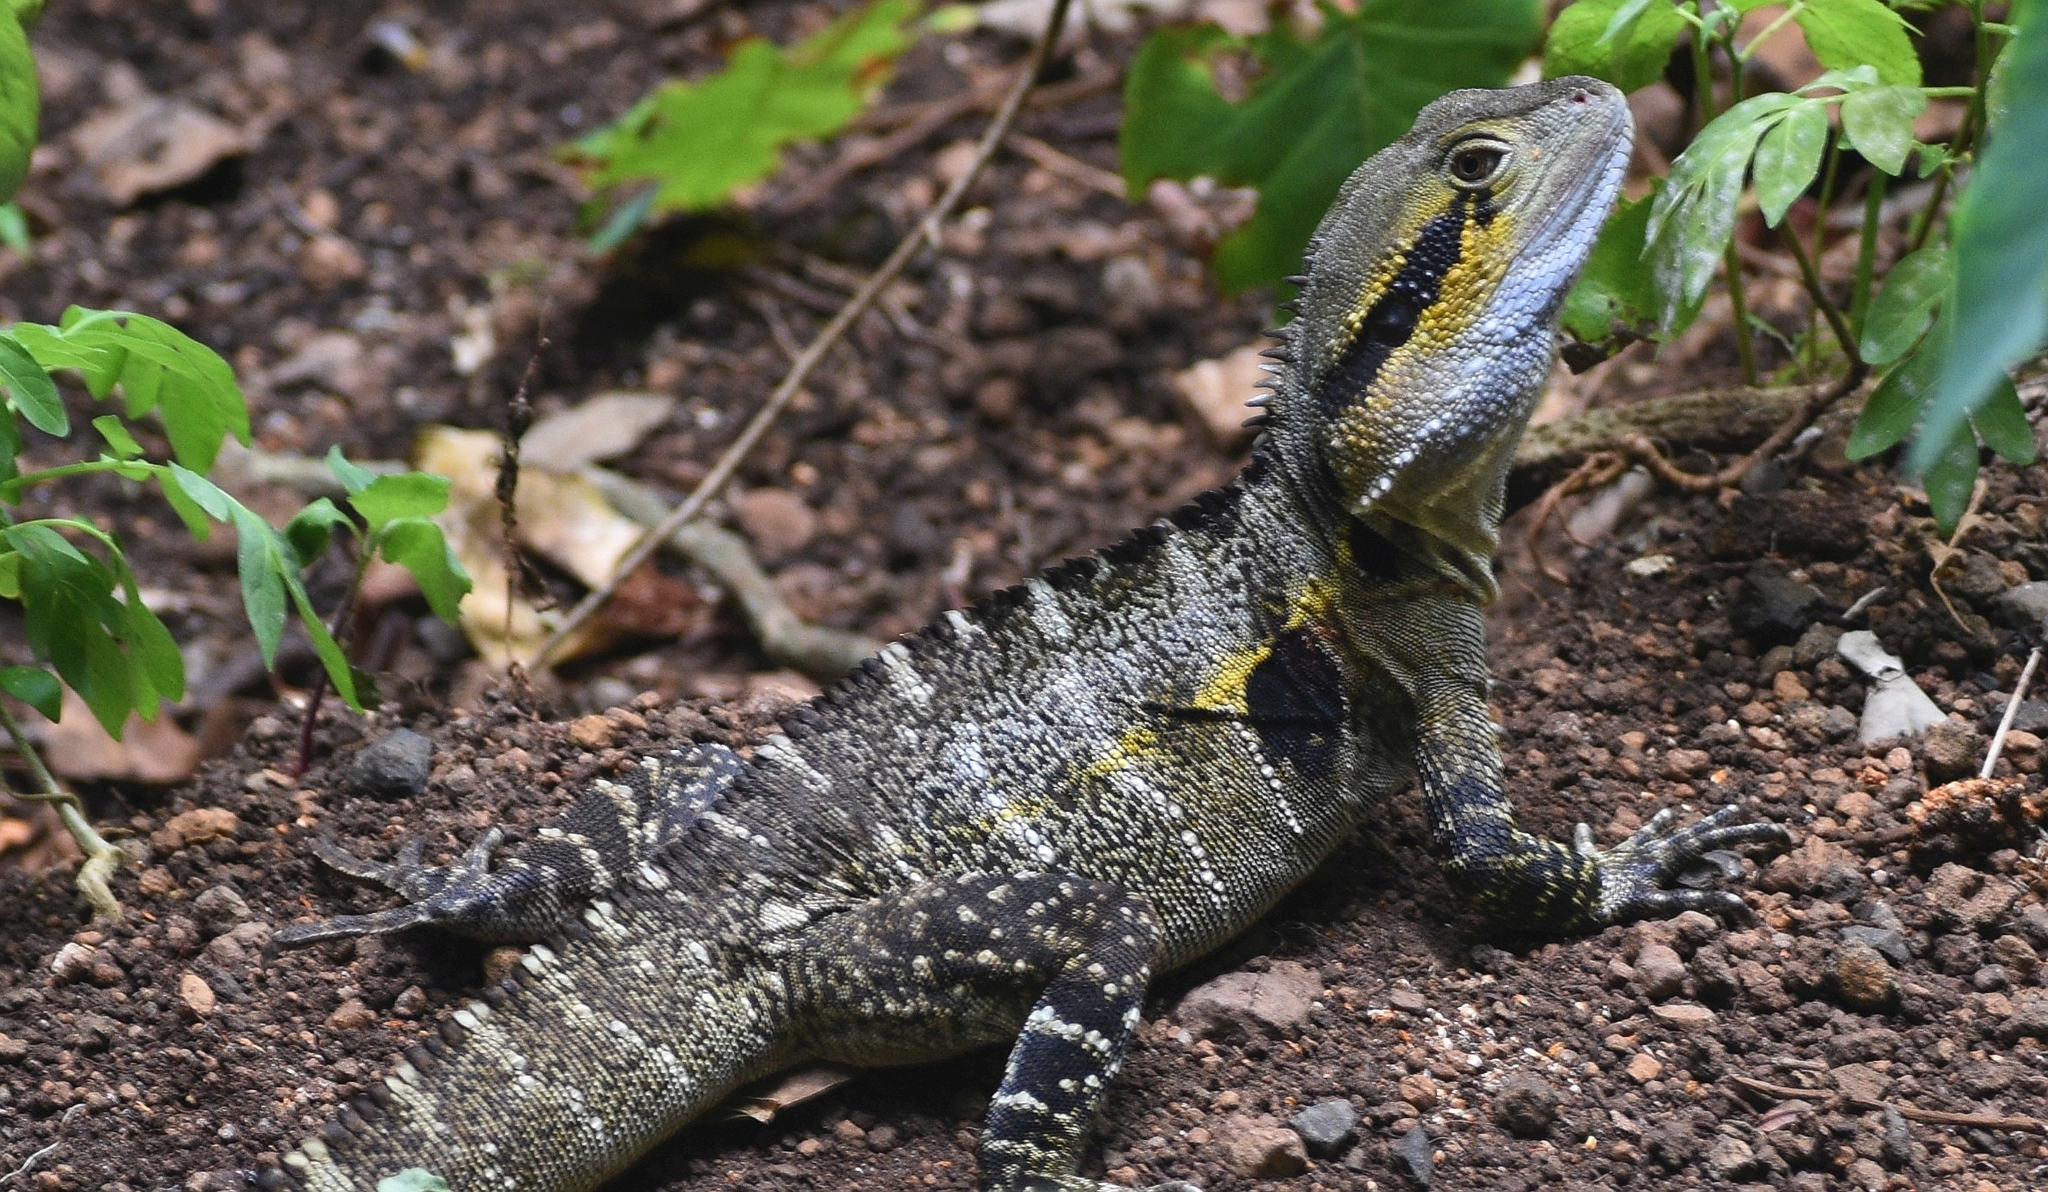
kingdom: Animalia
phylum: Chordata
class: Squamata
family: Agamidae
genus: Intellagama
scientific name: Intellagama lesueurii
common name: Eastern water dragon
